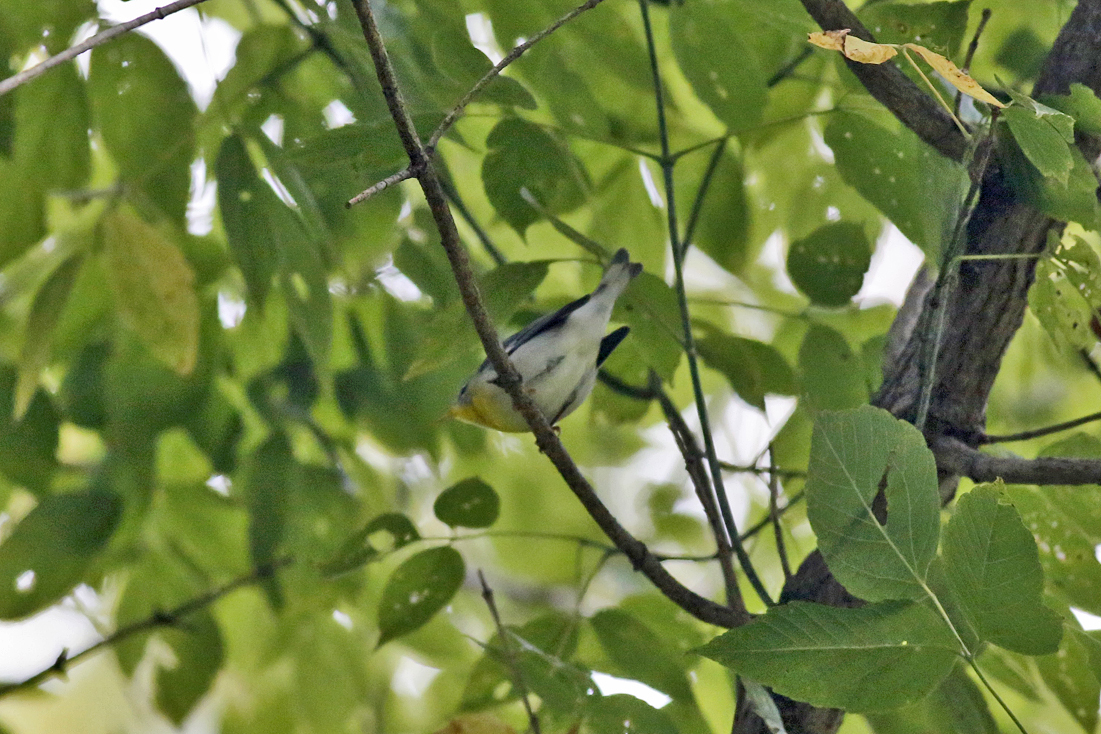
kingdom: Animalia
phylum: Chordata
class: Aves
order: Passeriformes
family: Parulidae
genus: Setophaga
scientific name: Setophaga americana
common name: Northern parula
